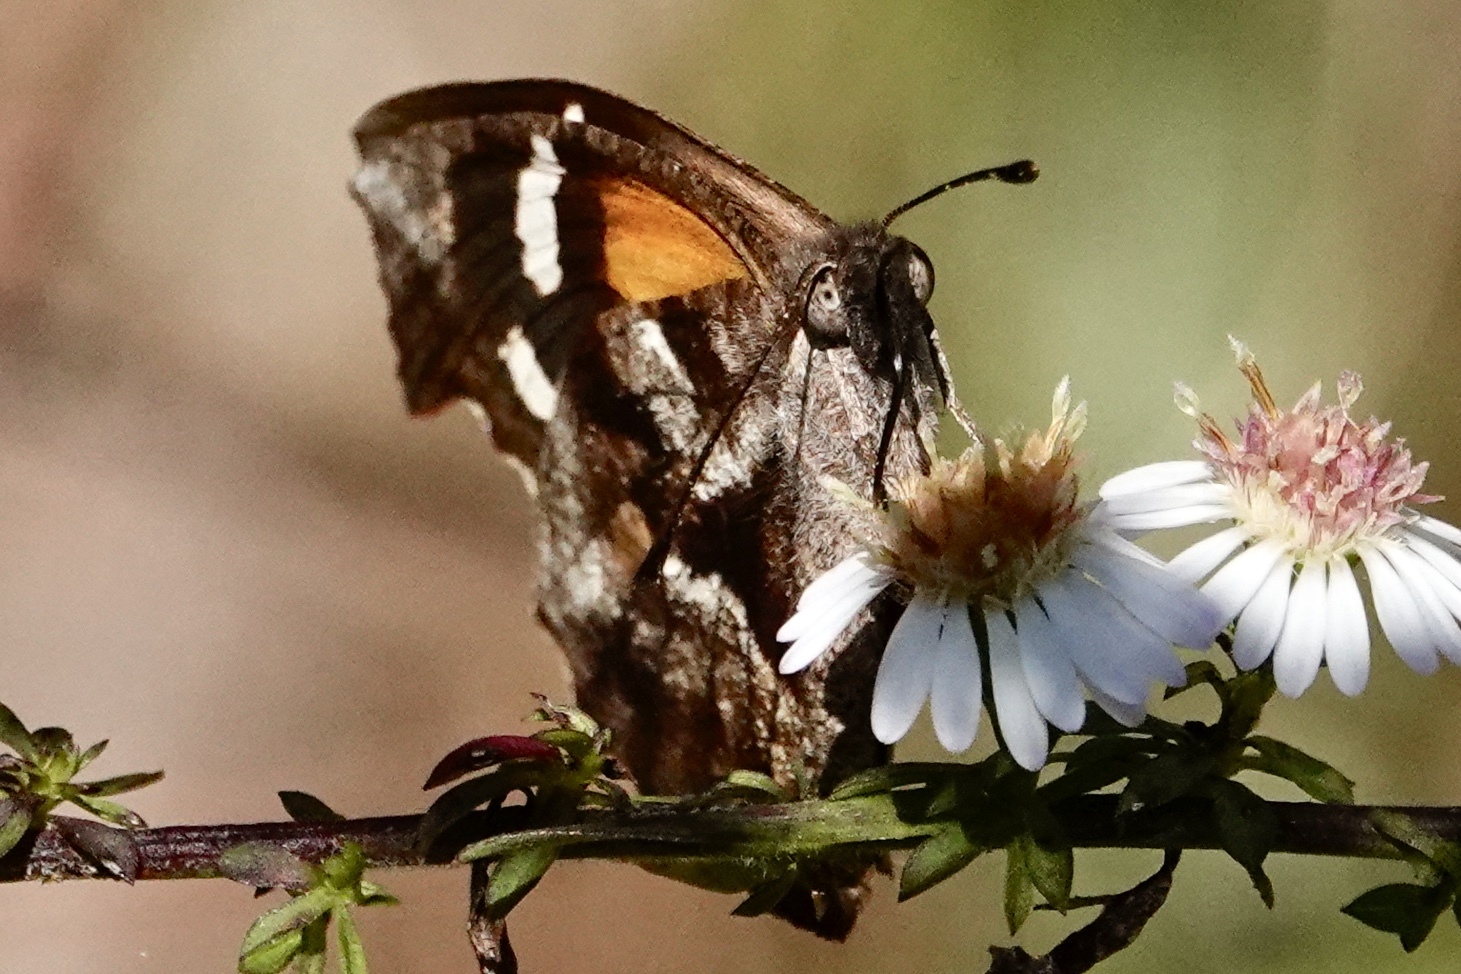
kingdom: Animalia
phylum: Arthropoda
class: Insecta
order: Lepidoptera
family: Nymphalidae
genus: Libytheana
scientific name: Libytheana carinenta
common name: American snout
